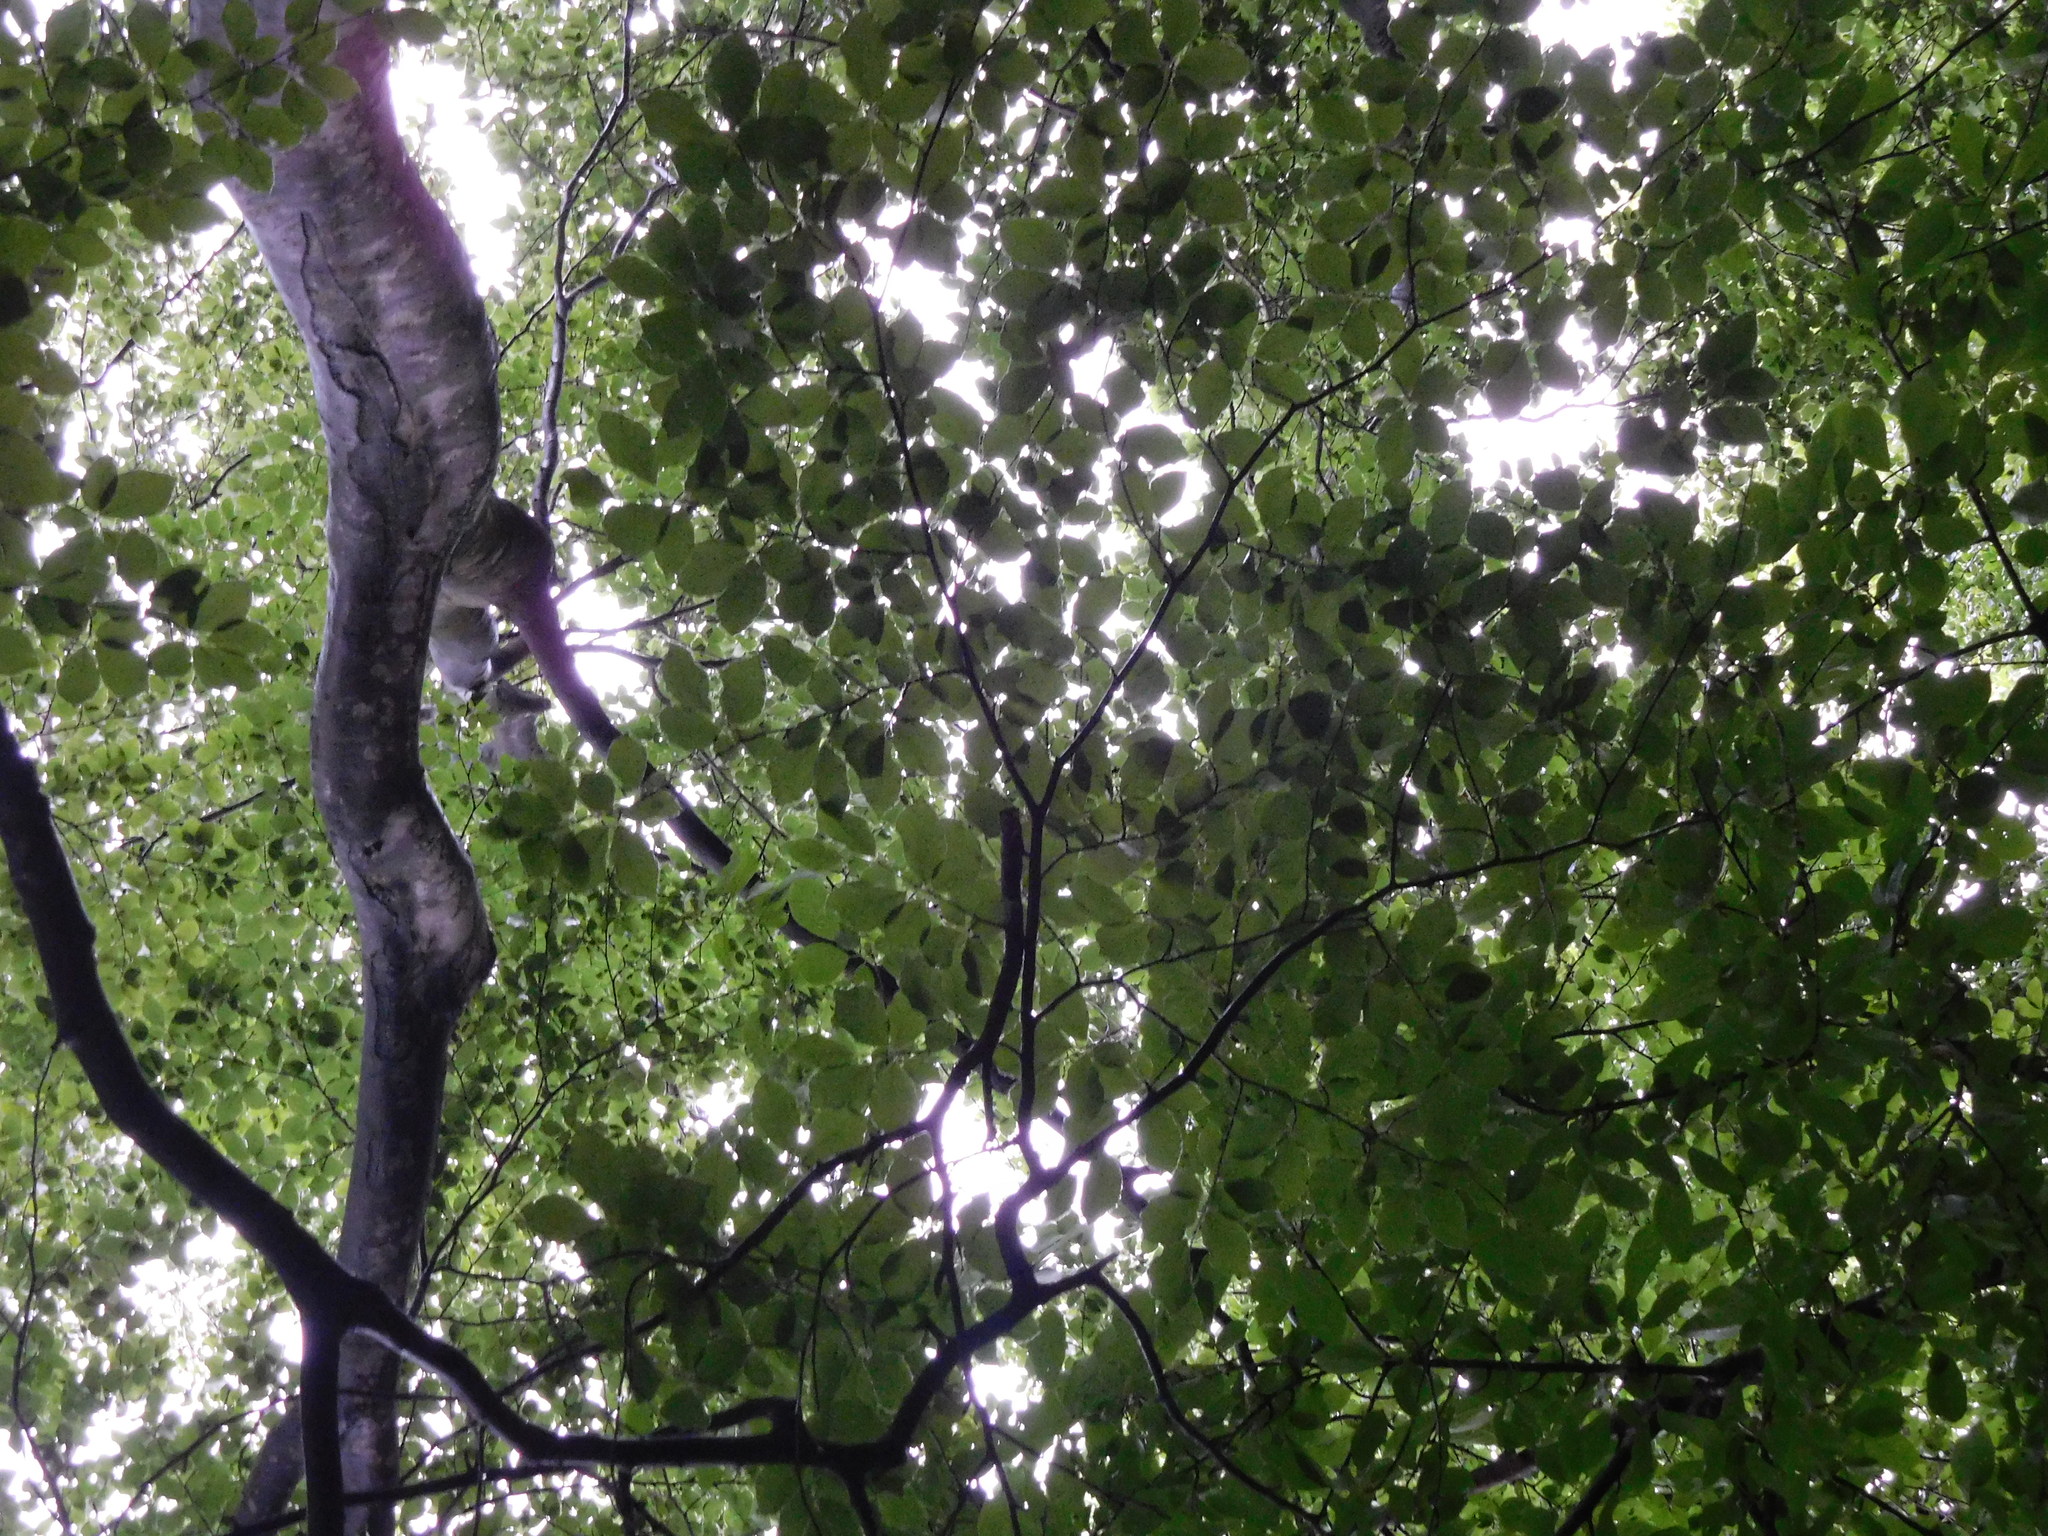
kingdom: Plantae
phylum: Tracheophyta
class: Magnoliopsida
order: Fagales
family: Fagaceae
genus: Fagus
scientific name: Fagus sylvatica
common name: Beech
